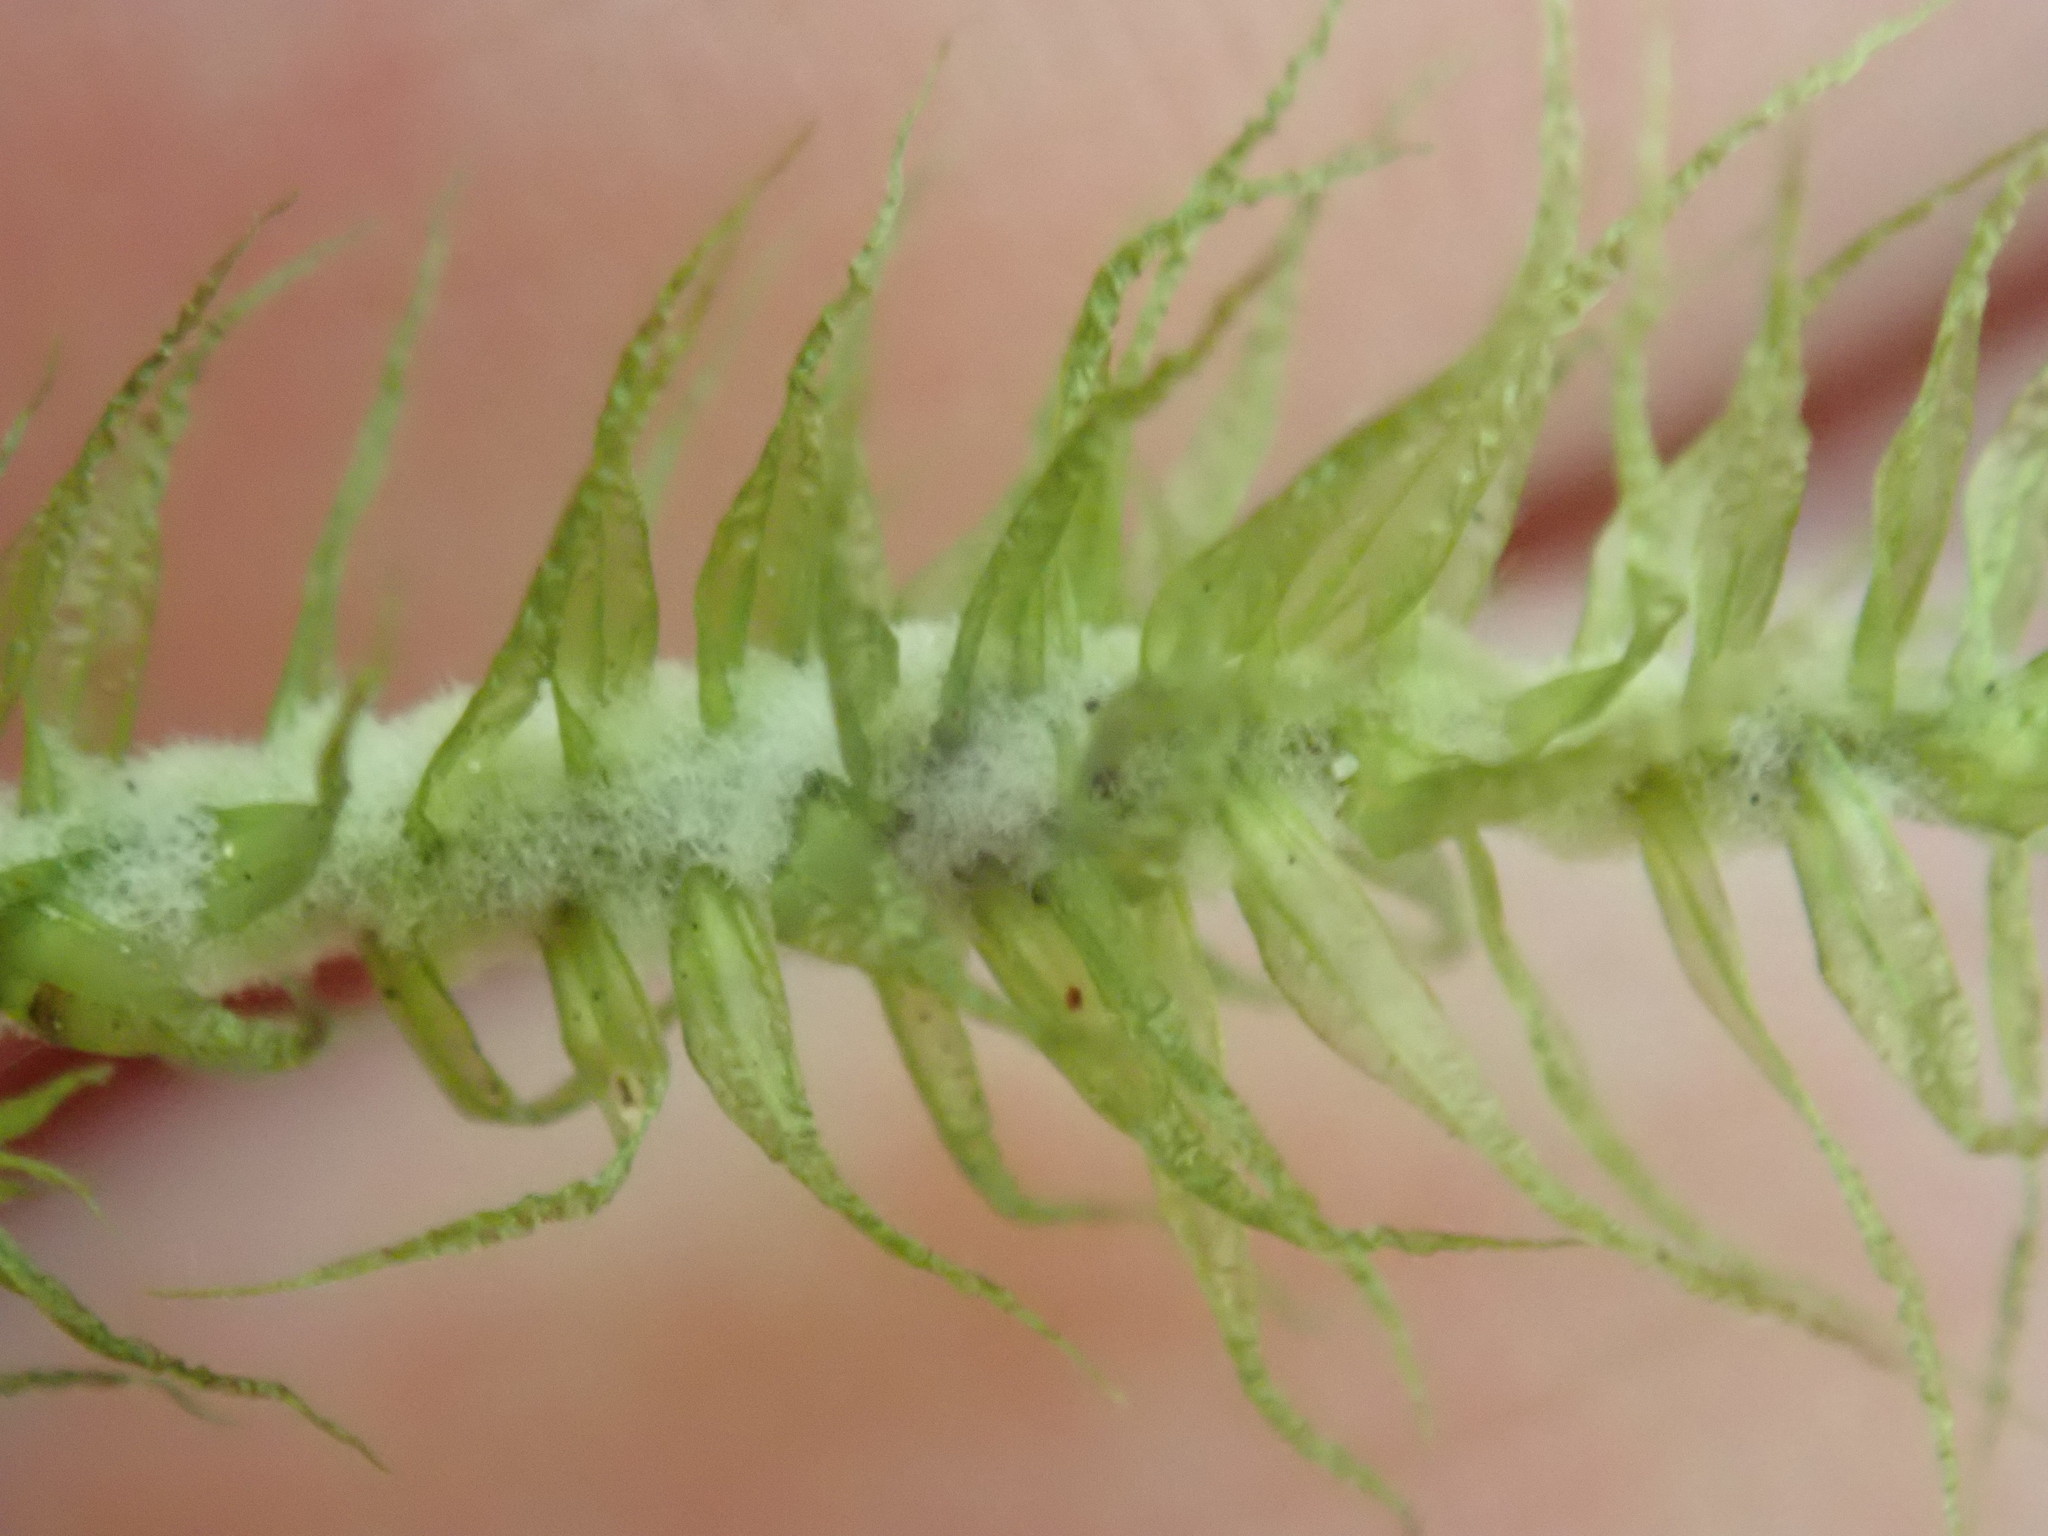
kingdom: Plantae
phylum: Bryophyta
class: Bryopsida
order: Dicranales
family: Dicranaceae
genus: Dicranum
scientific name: Dicranum polysetum
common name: Rugose fork-moss
